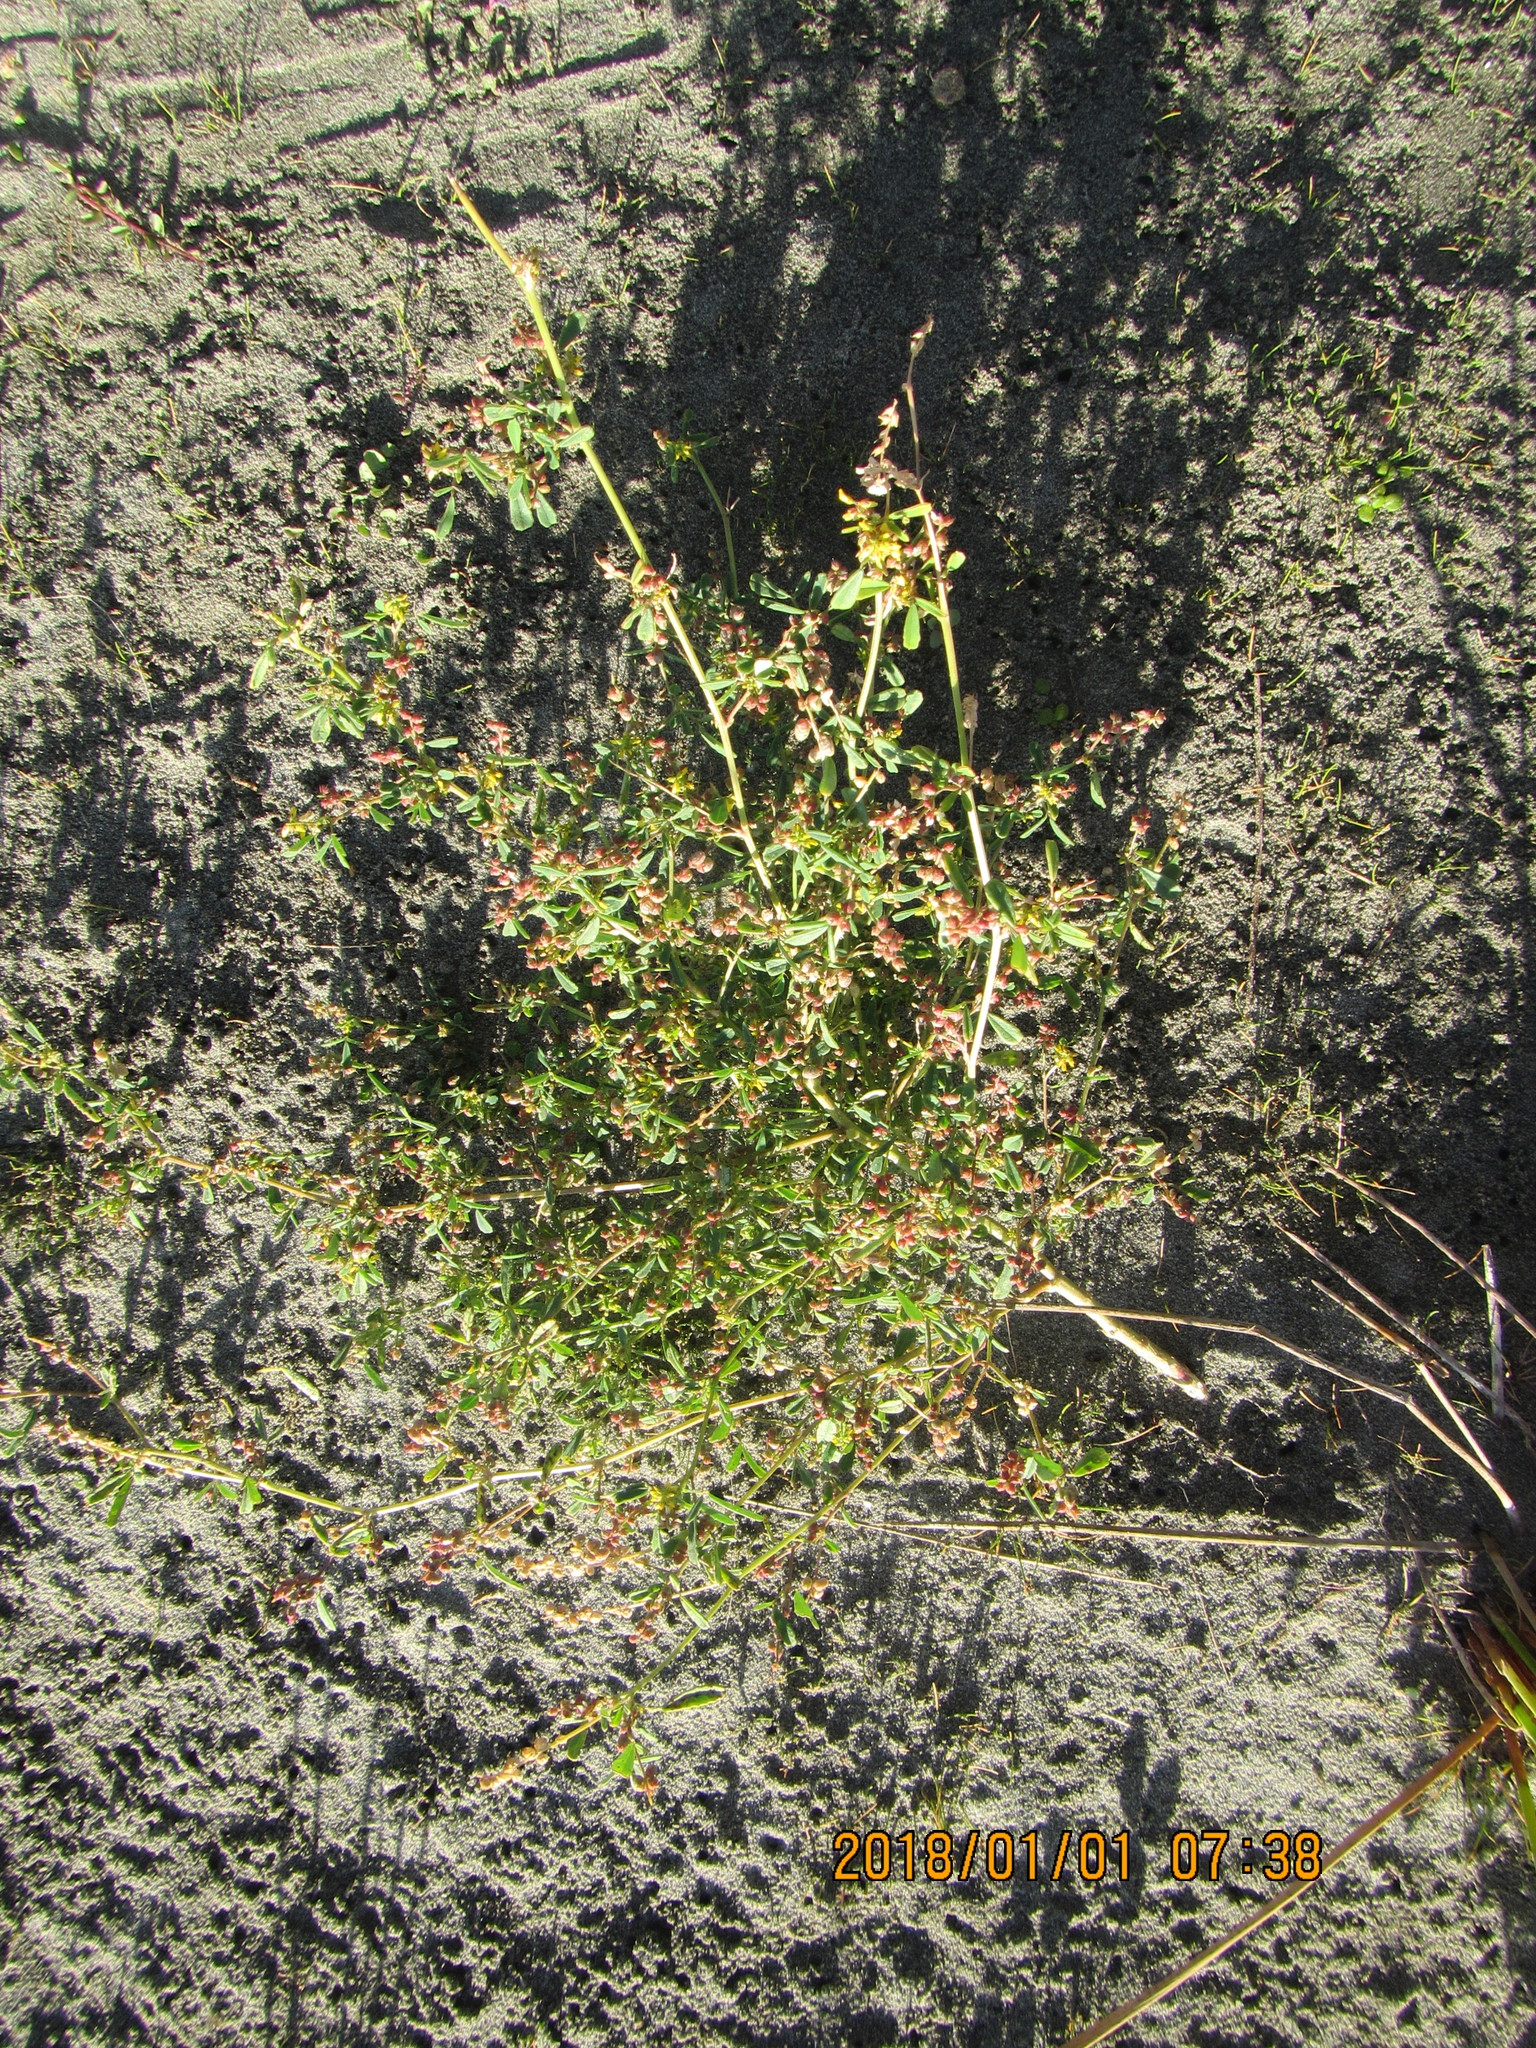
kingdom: Plantae
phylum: Tracheophyta
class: Magnoliopsida
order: Fabales
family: Fabaceae
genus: Melilotus
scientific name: Melilotus indicus
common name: Small melilot
